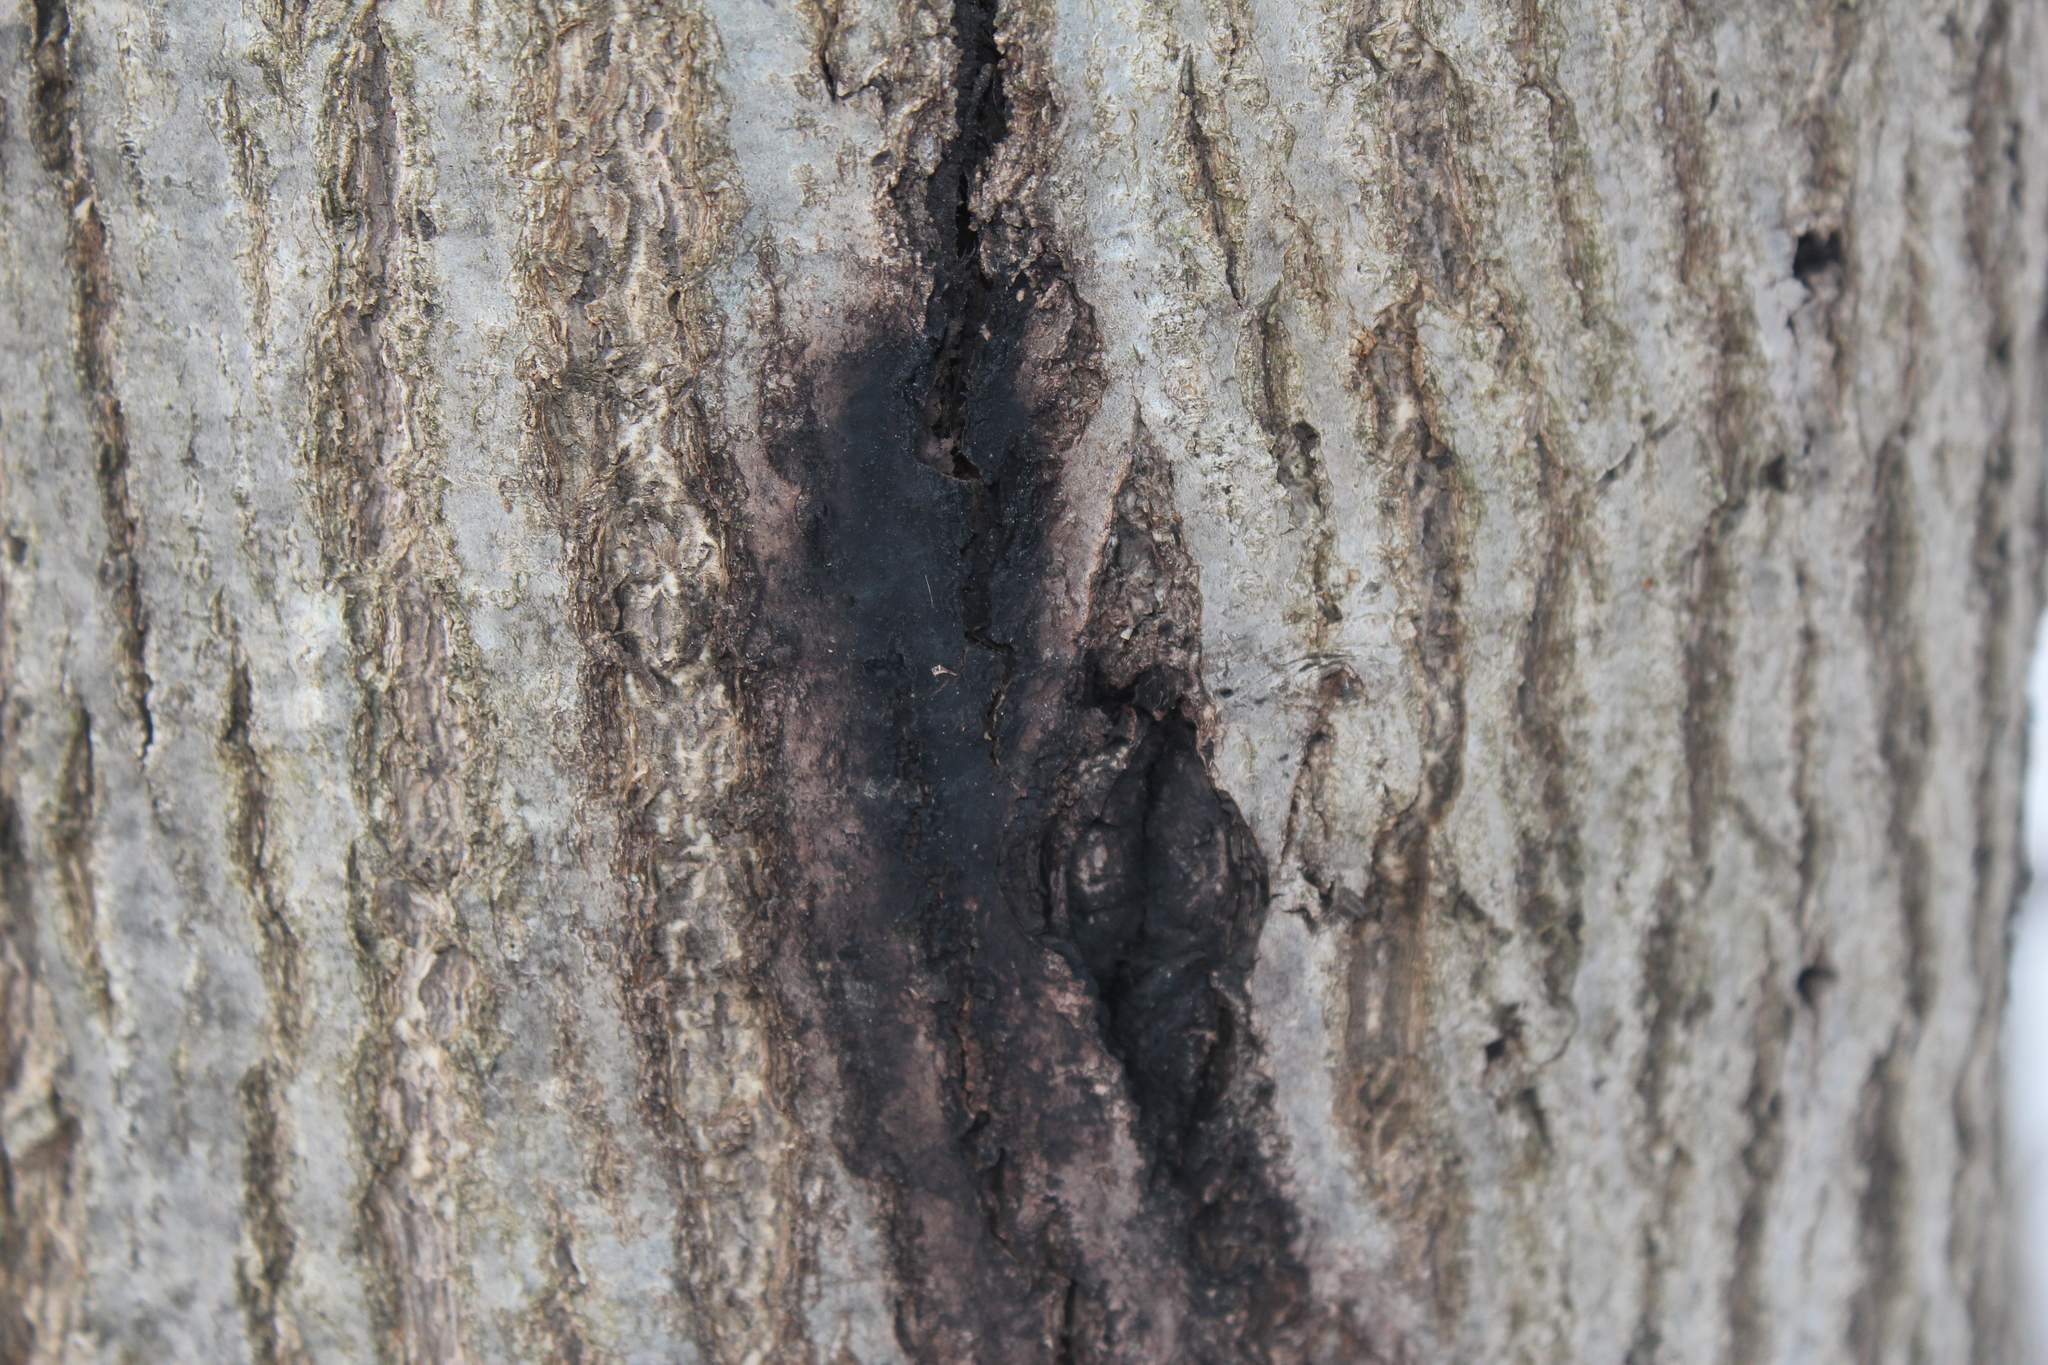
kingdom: Fungi
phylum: Ascomycota
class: Sordariomycetes
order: Diaporthales
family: Gnomoniaceae
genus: Ophiognomonia
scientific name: Ophiognomonia clavigignenti-juglandacearum
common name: Butternut canker fungus
